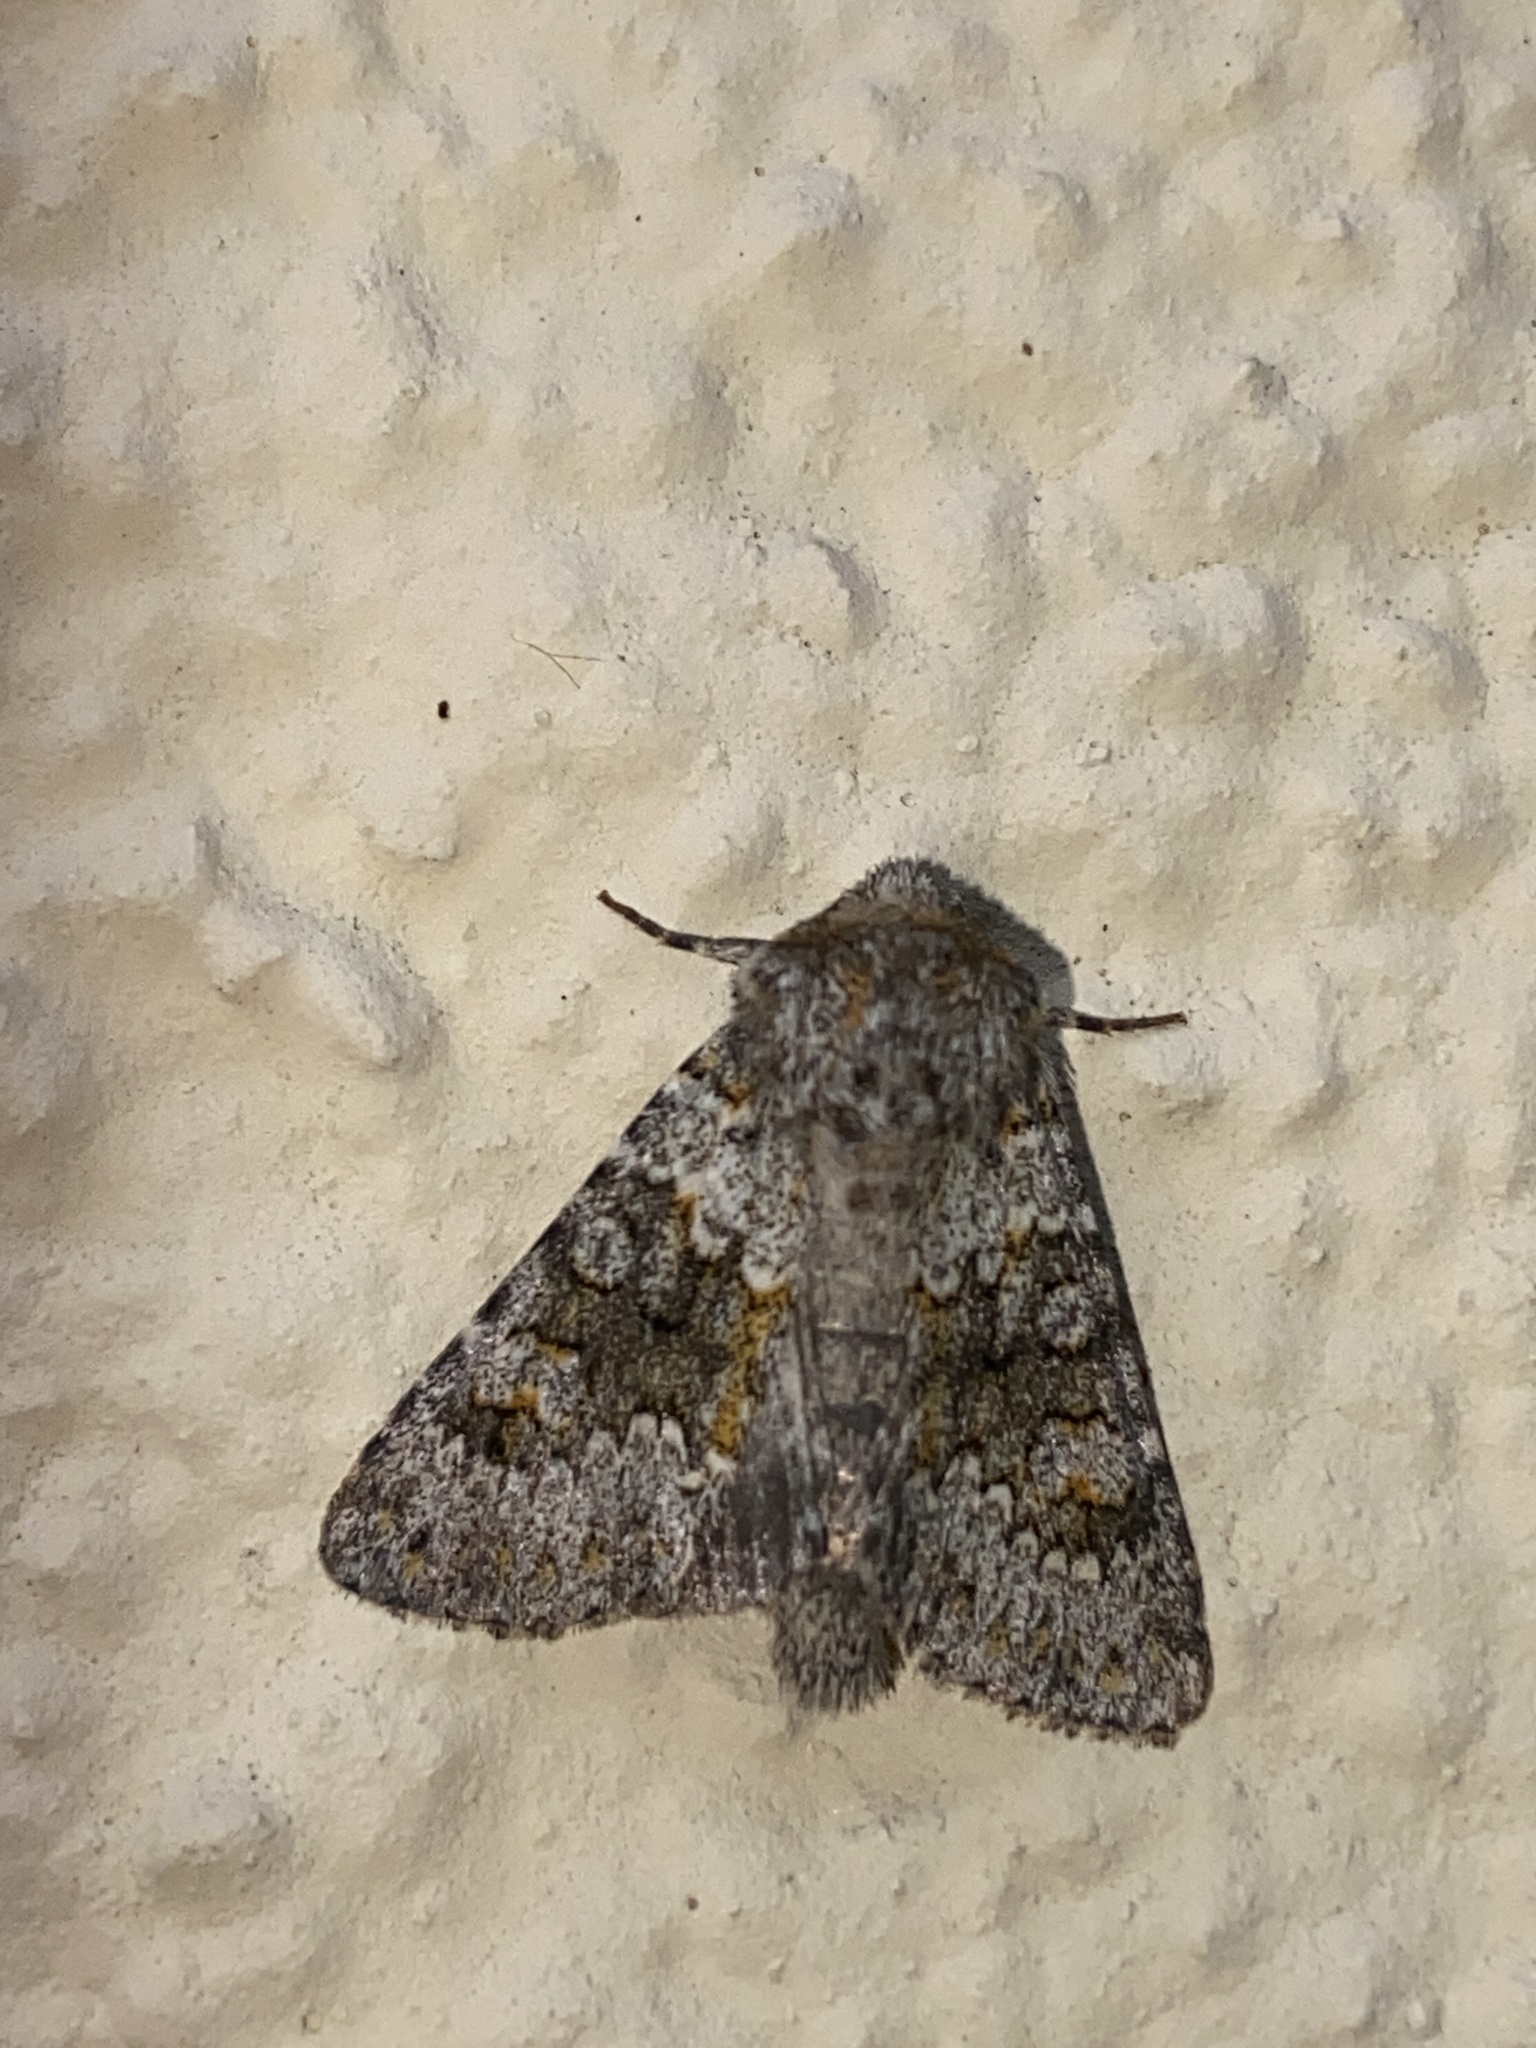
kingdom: Animalia
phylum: Arthropoda
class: Insecta
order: Lepidoptera
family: Noctuidae
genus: Hecatera
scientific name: Hecatera dysodea
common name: Small ranunculus
